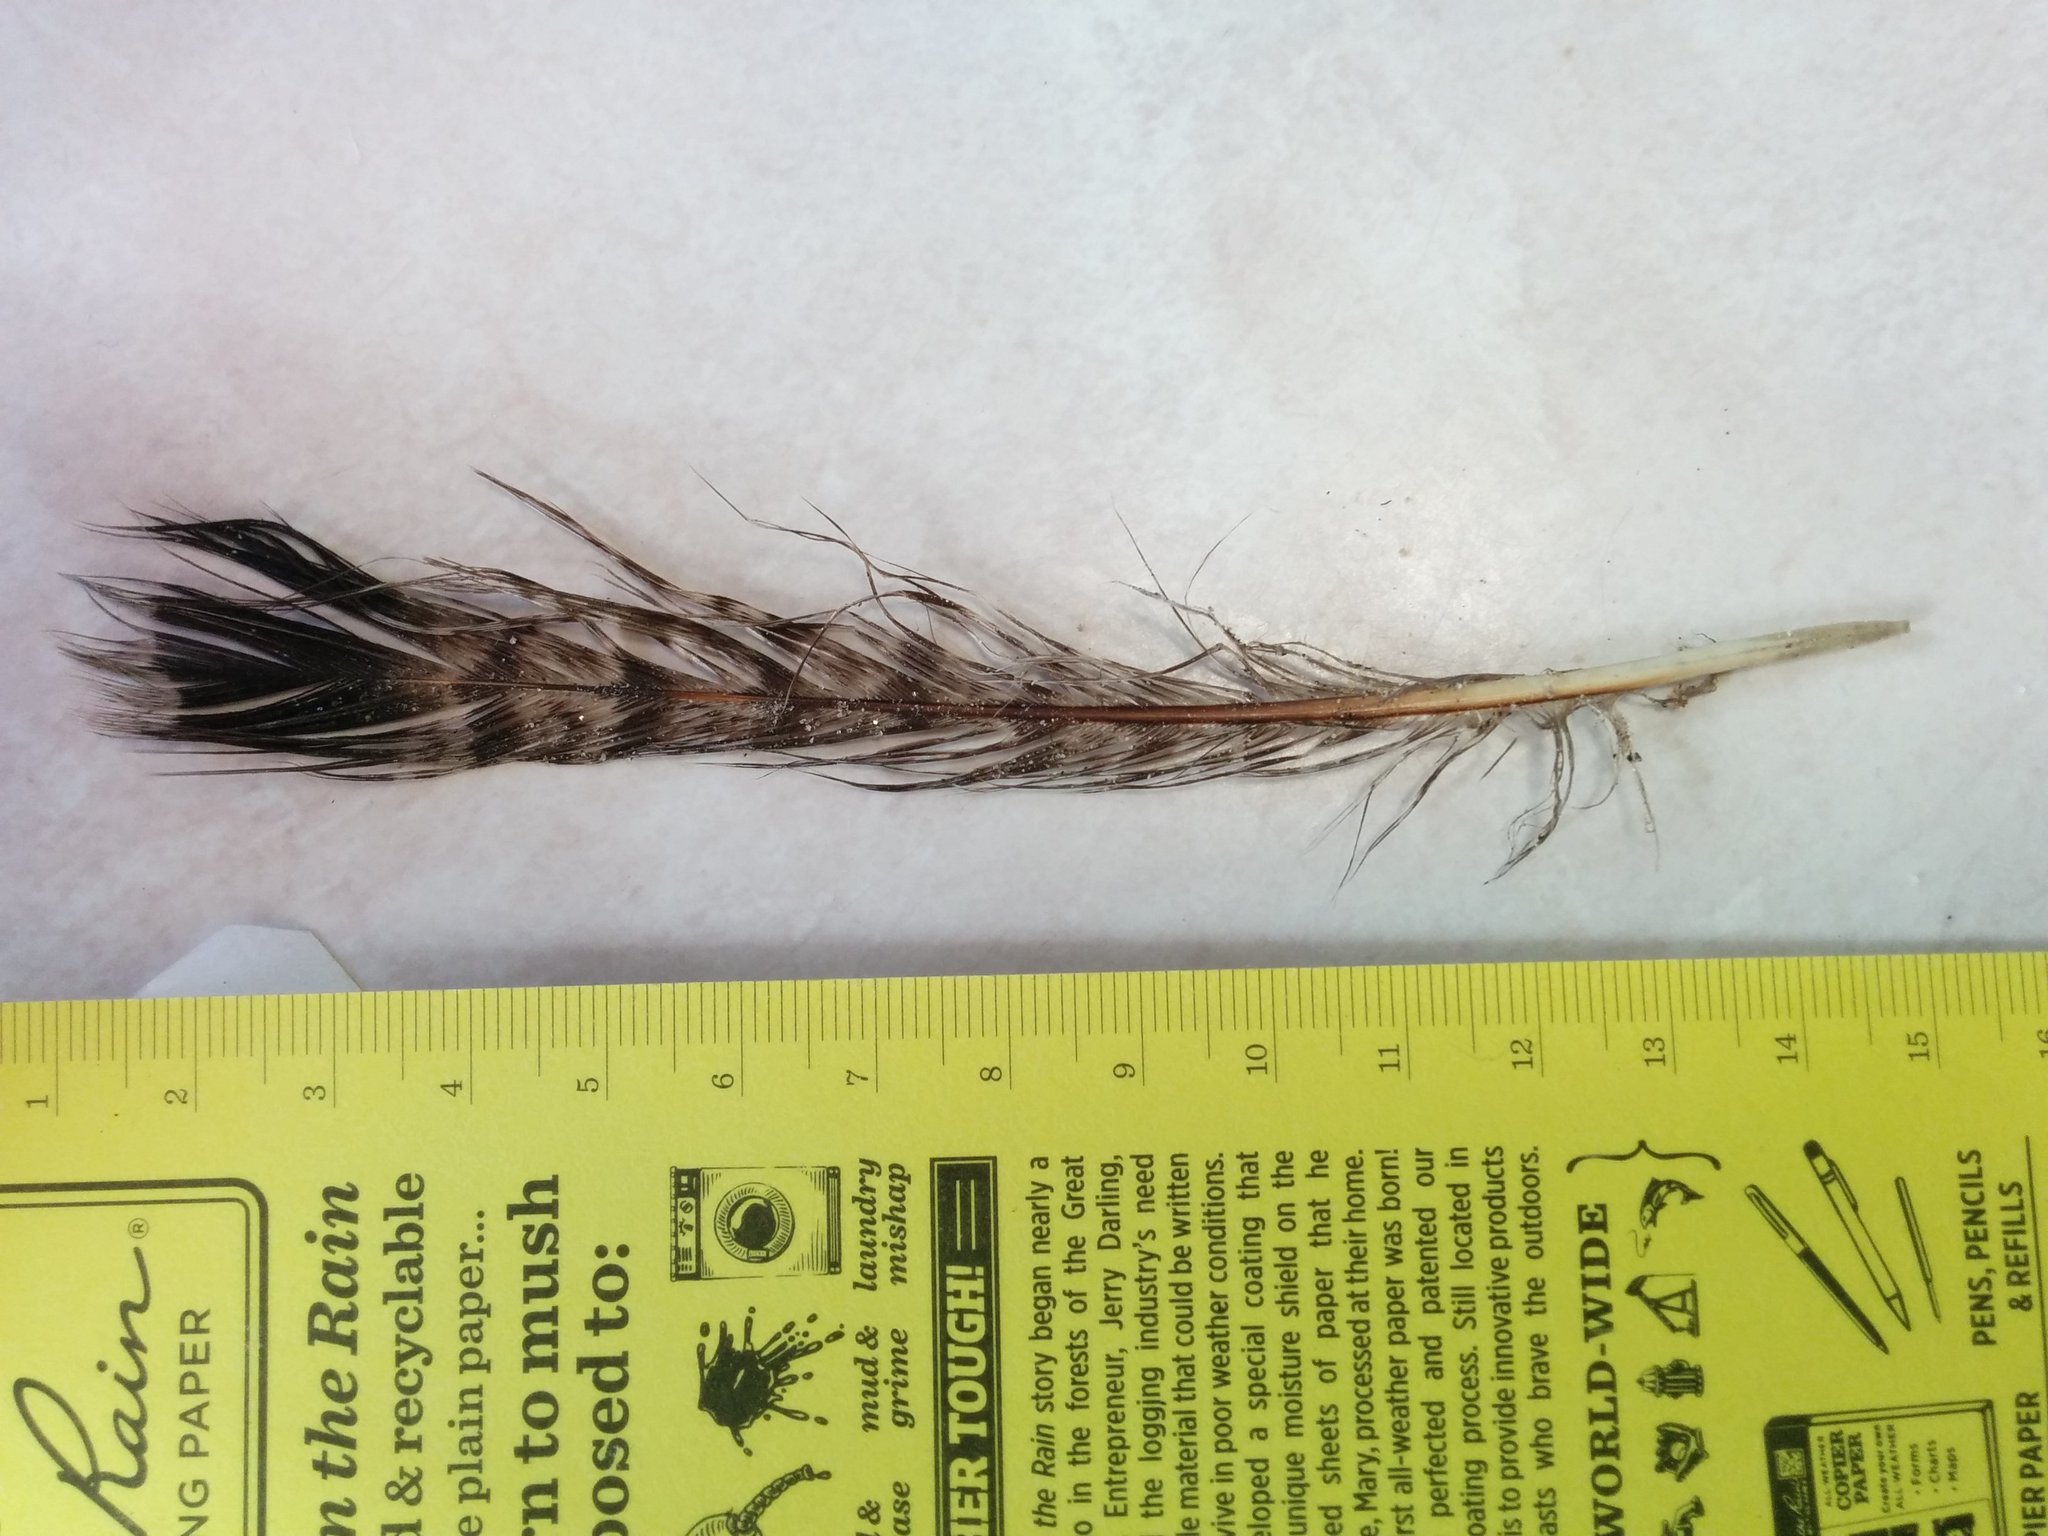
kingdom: Animalia
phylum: Chordata
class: Aves
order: Galliformes
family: Phasianidae
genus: Bonasa
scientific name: Bonasa umbellus
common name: Ruffed grouse
